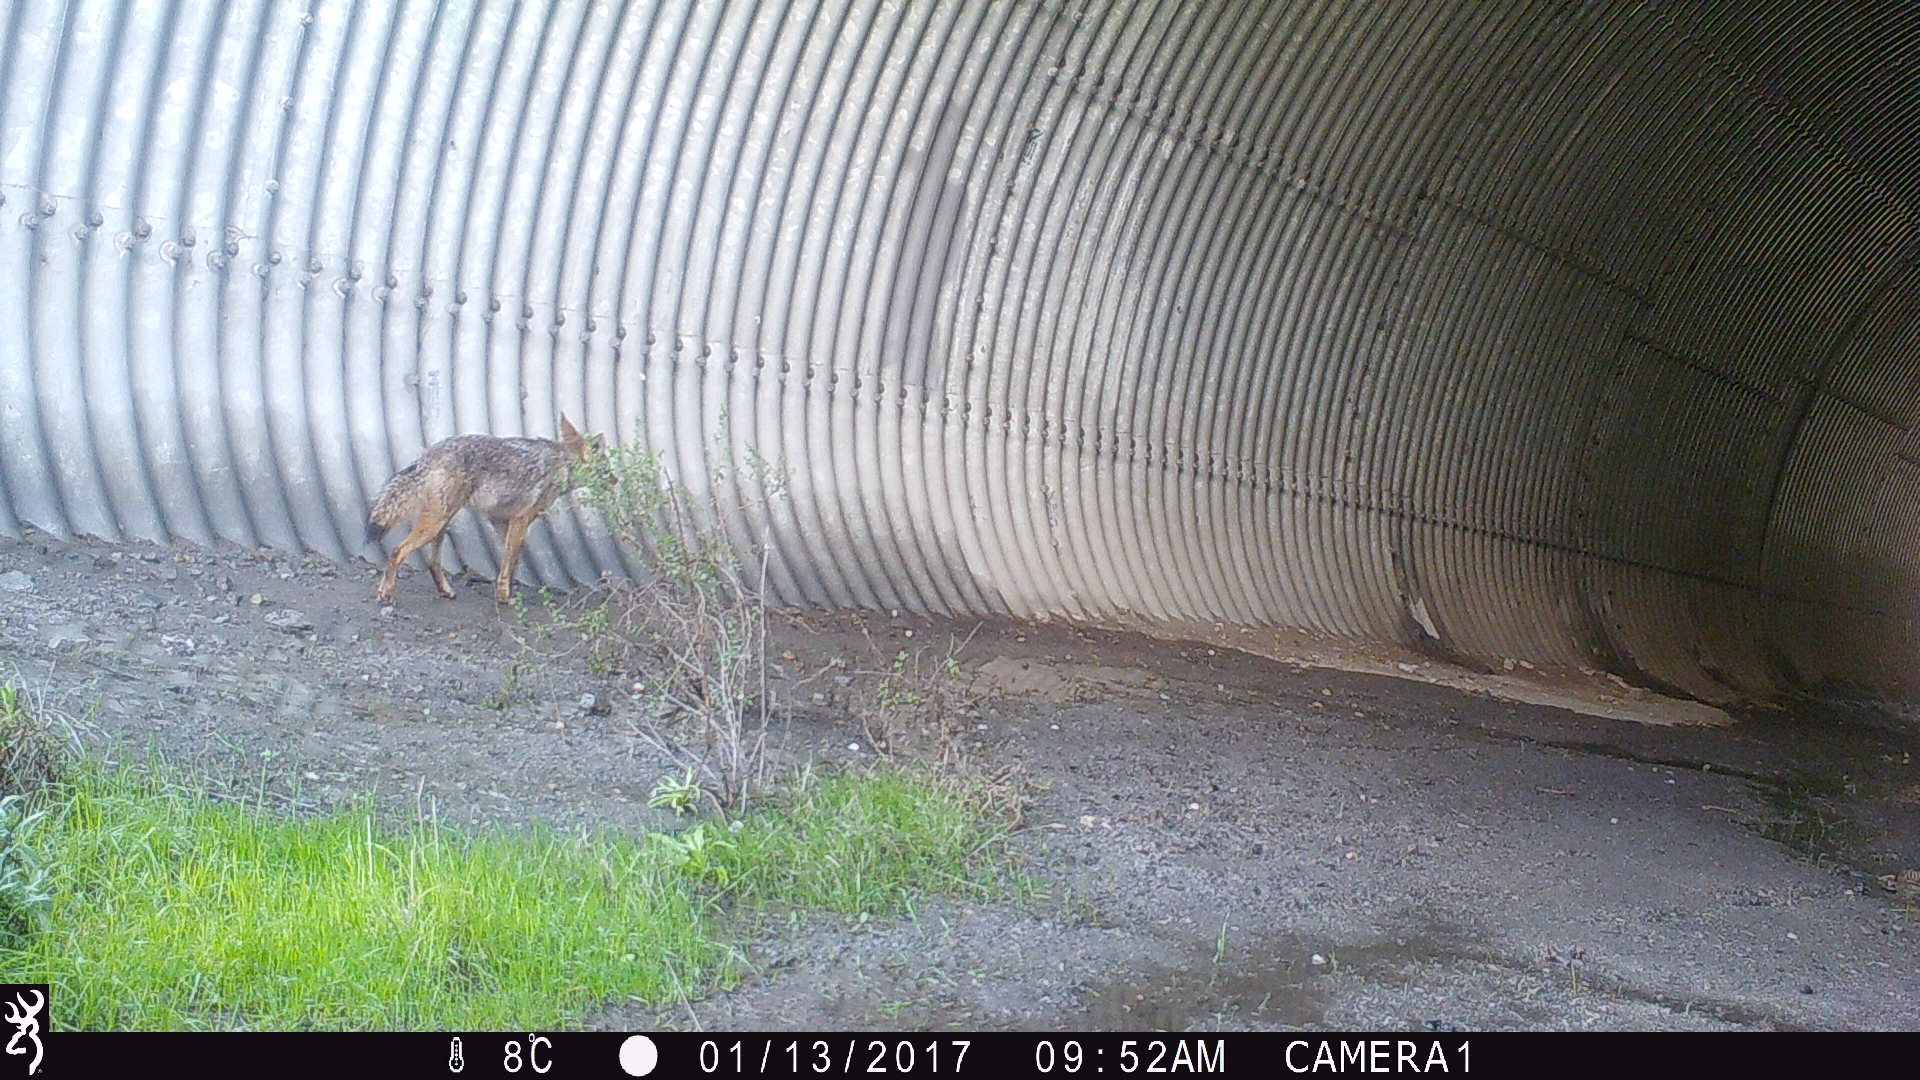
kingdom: Animalia
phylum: Chordata
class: Mammalia
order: Carnivora
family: Canidae
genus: Canis
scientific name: Canis latrans
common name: Coyote
